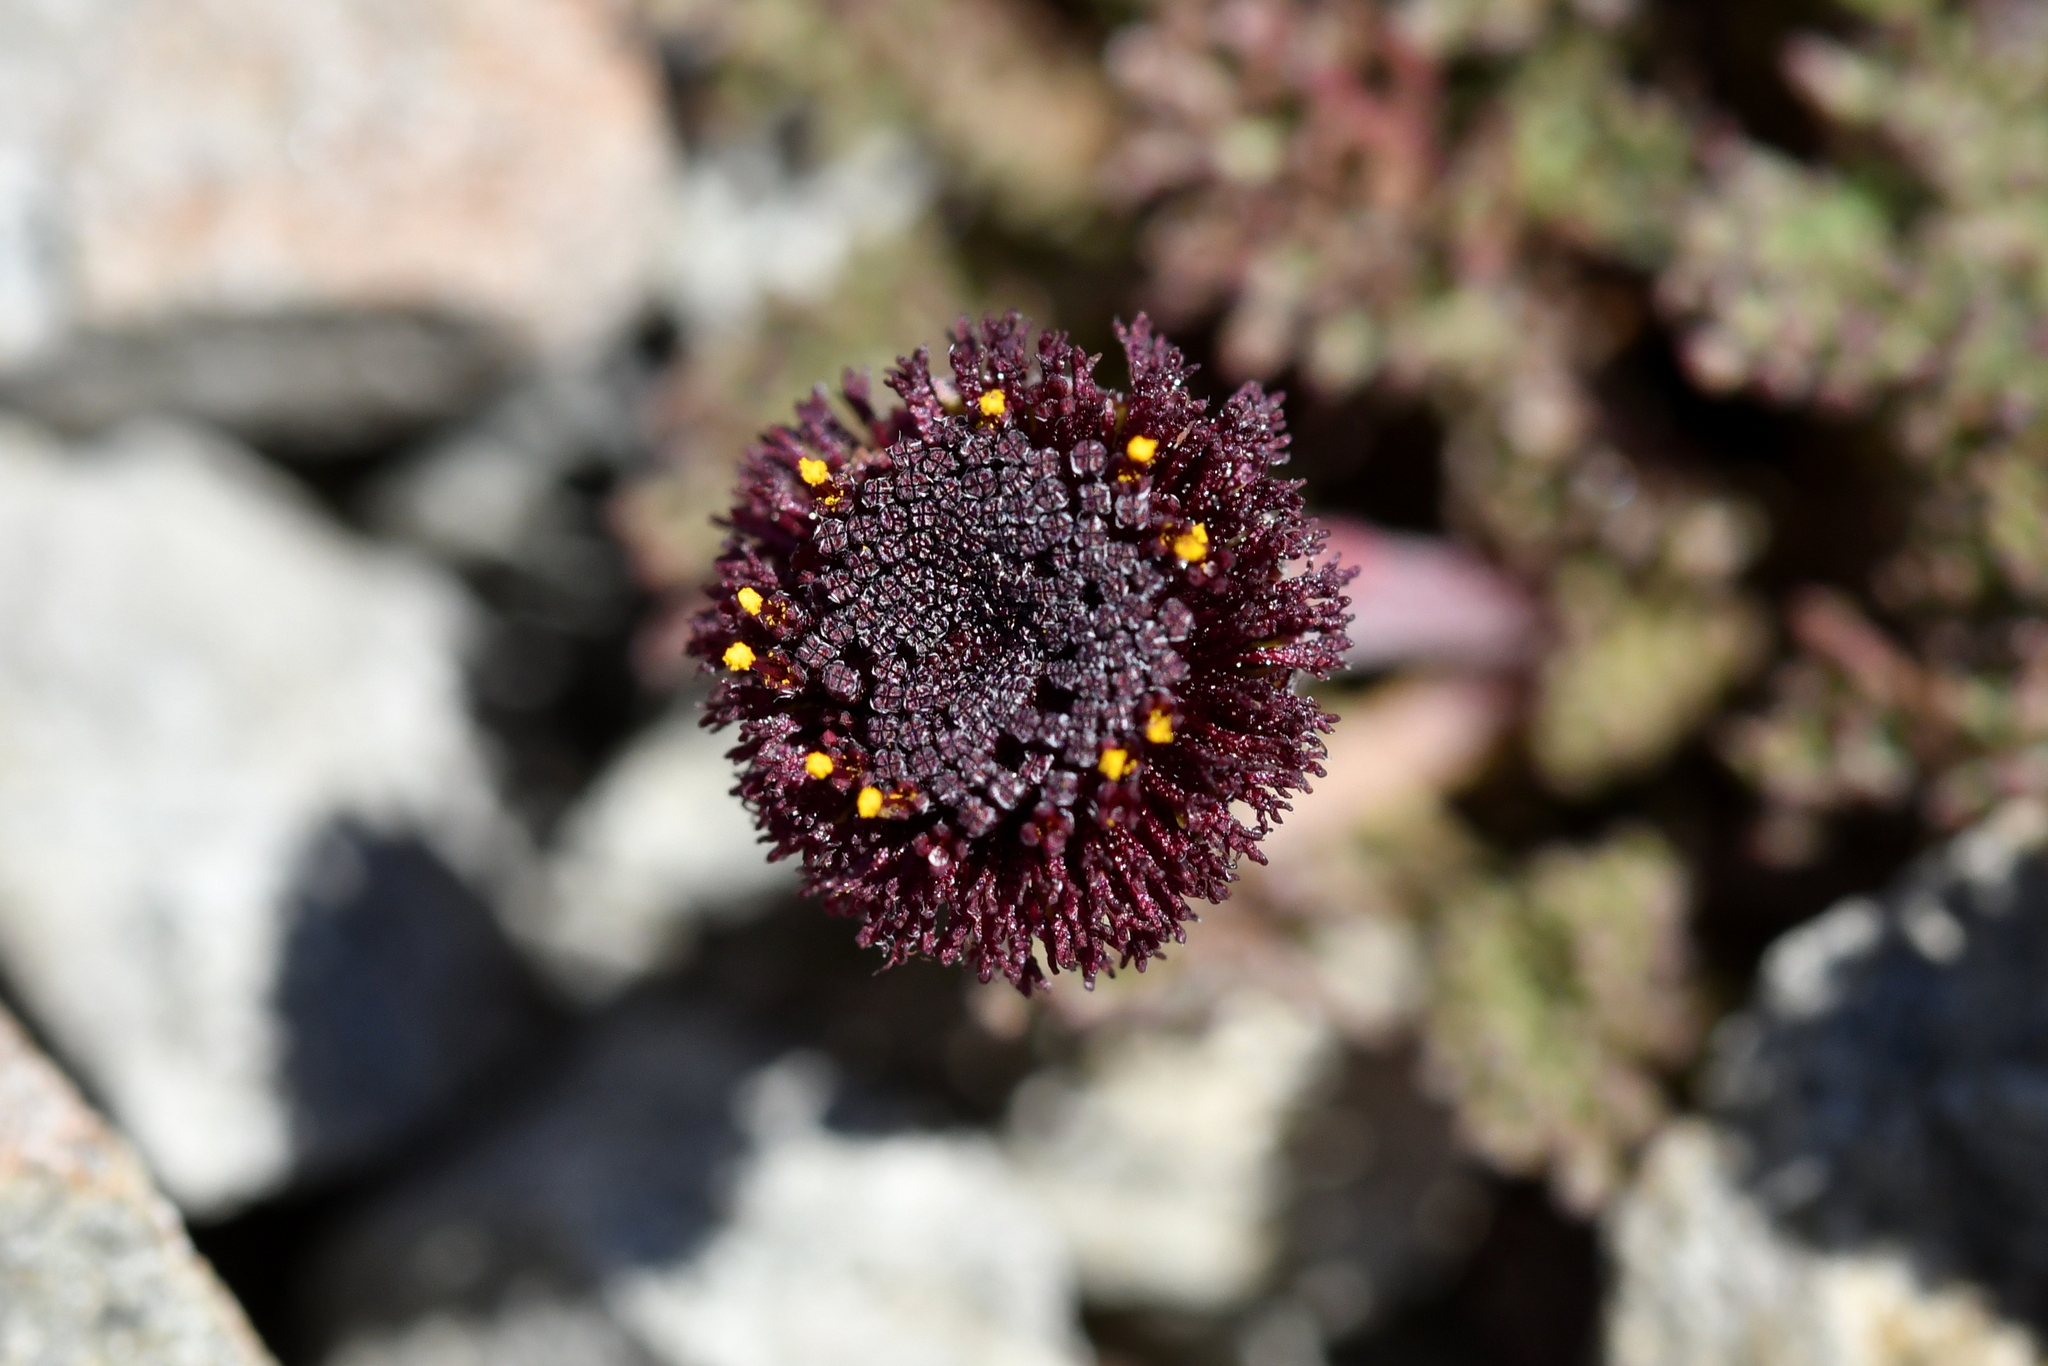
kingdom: Plantae
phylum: Tracheophyta
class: Magnoliopsida
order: Asterales
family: Asteraceae
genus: Leptinella
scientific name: Leptinella atrata
